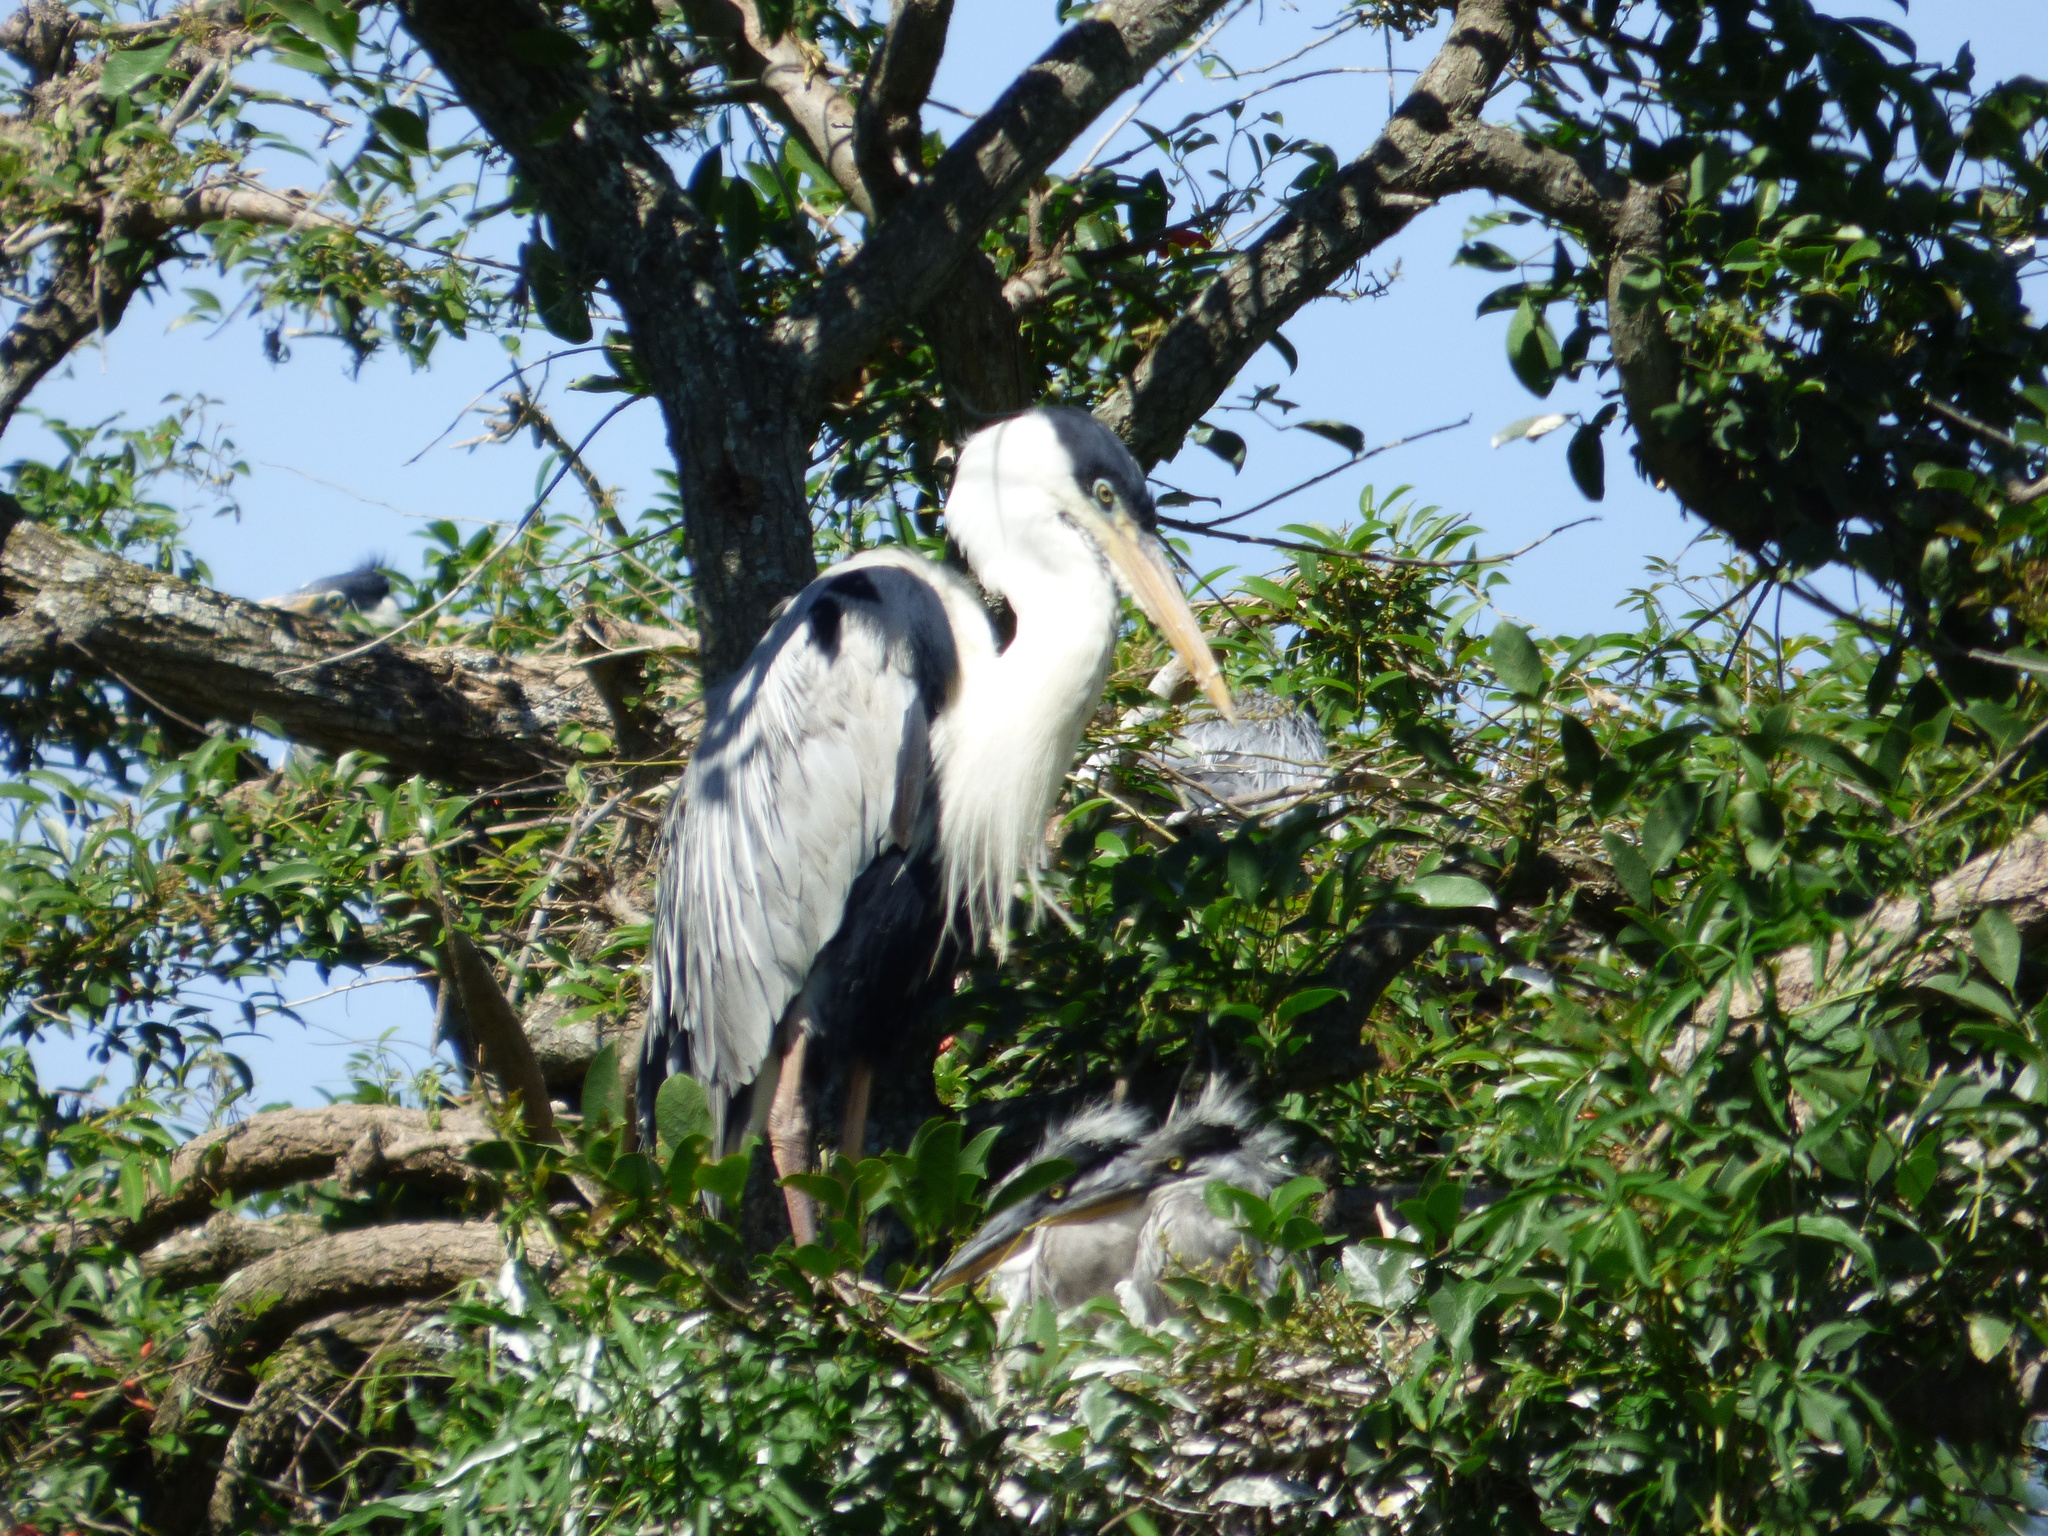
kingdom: Animalia
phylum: Chordata
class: Aves
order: Pelecaniformes
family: Ardeidae
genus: Ardea
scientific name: Ardea cocoi
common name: Cocoi heron
